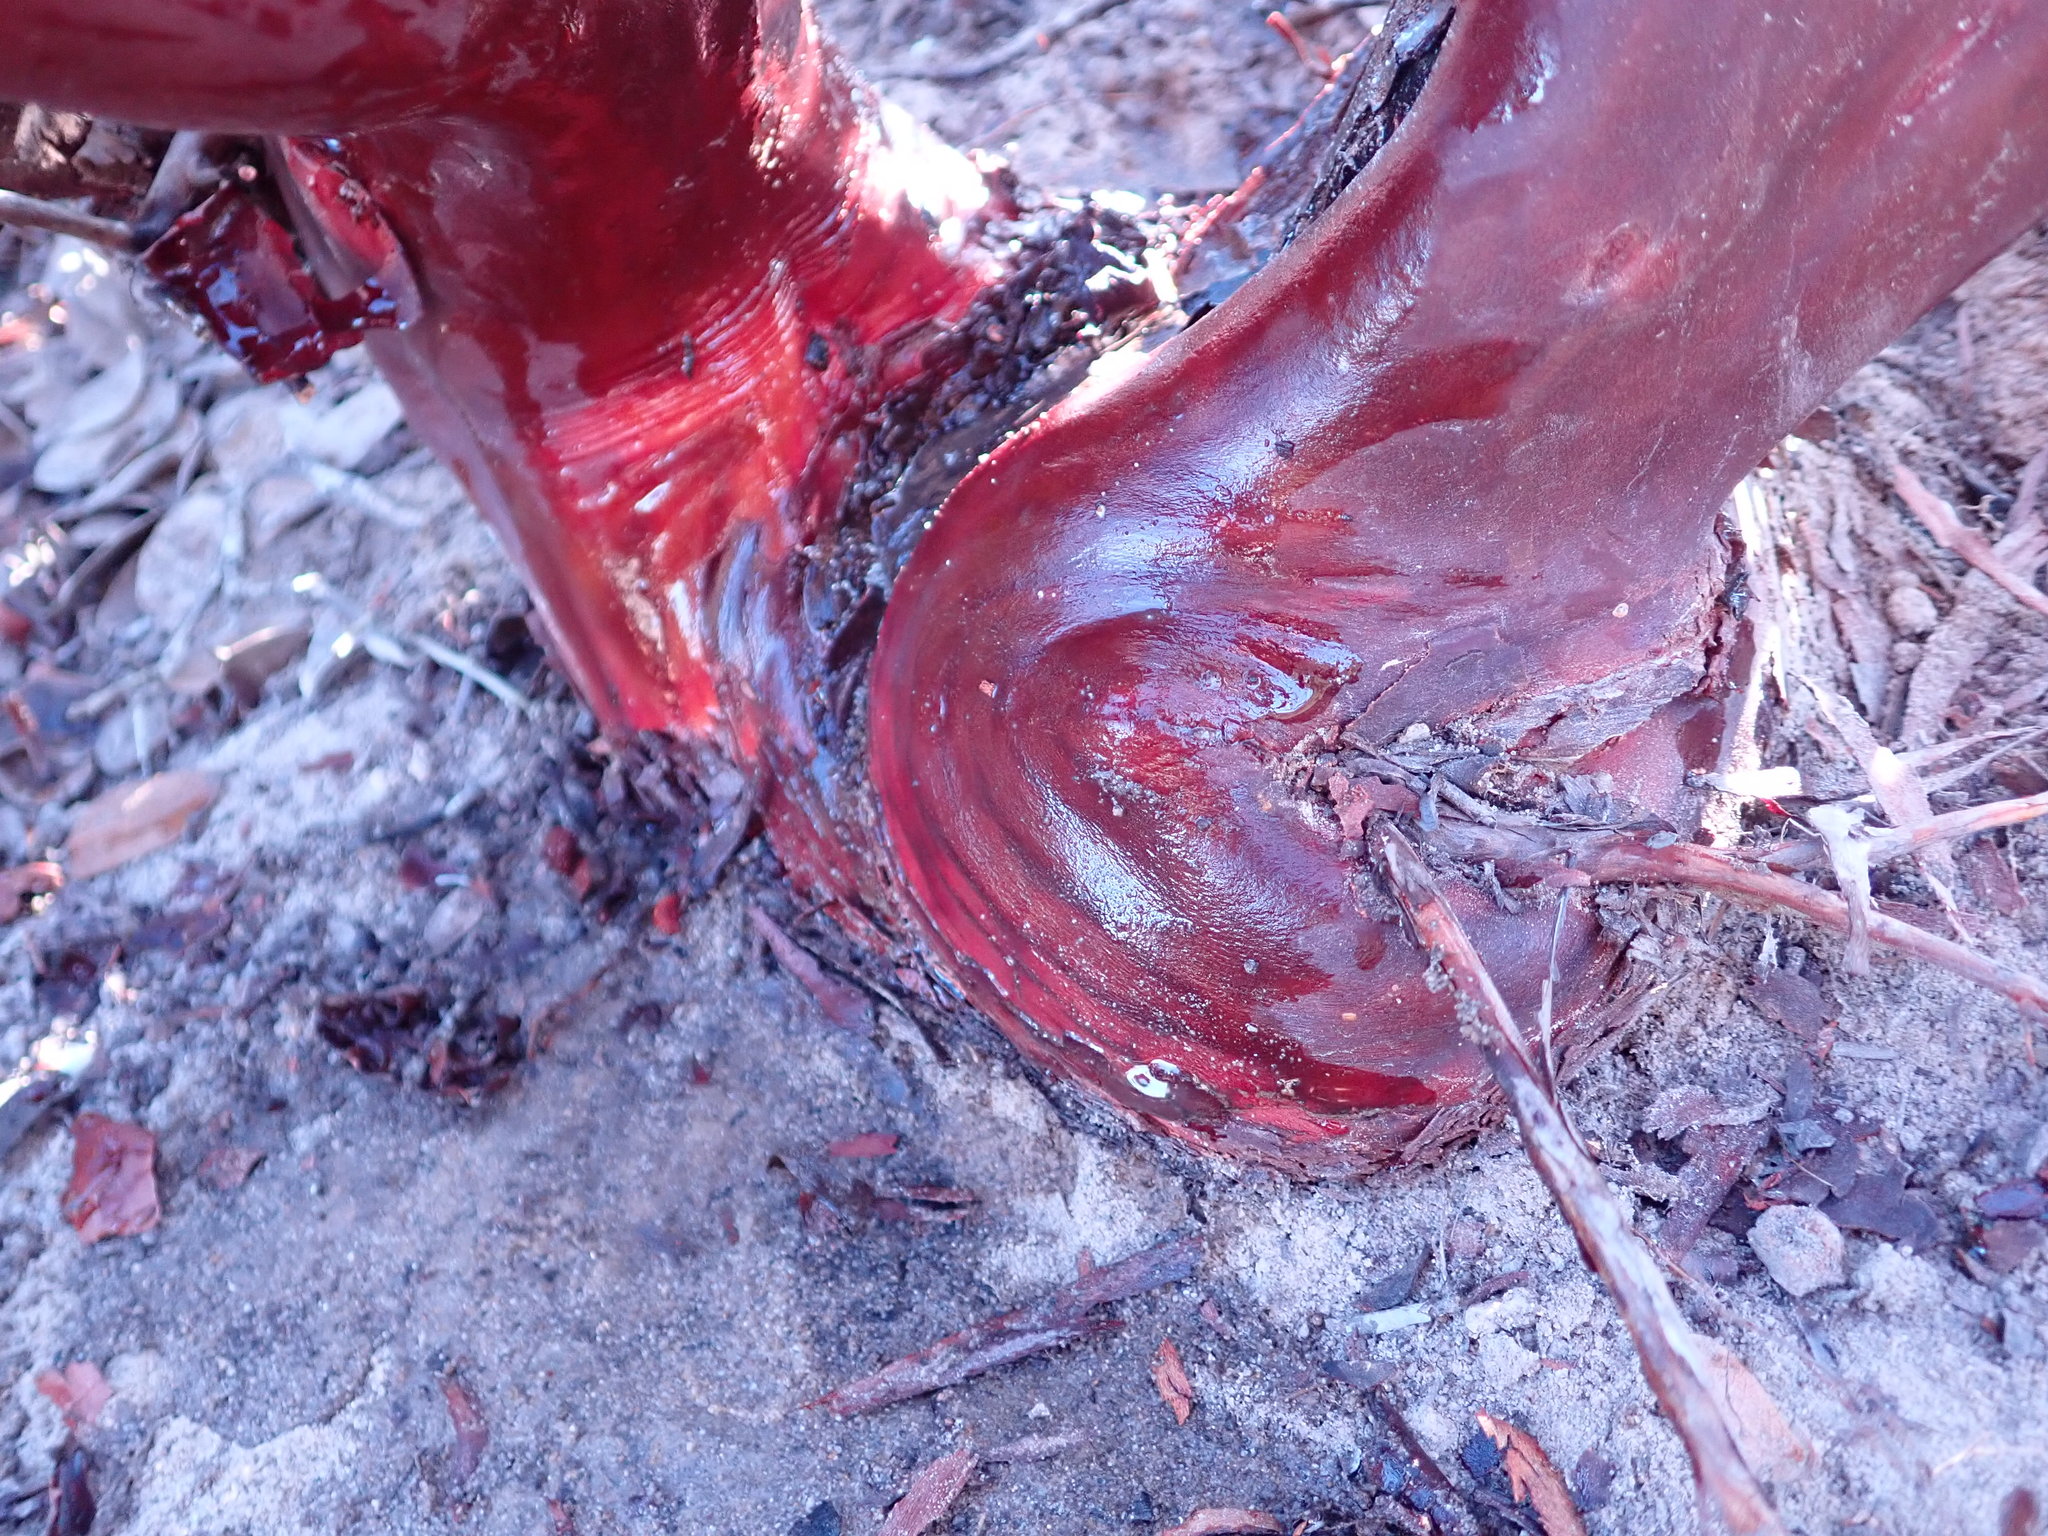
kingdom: Plantae
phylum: Tracheophyta
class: Magnoliopsida
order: Ericales
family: Ericaceae
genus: Arctostaphylos
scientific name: Arctostaphylos montereyensis
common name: Monterey manzanita
